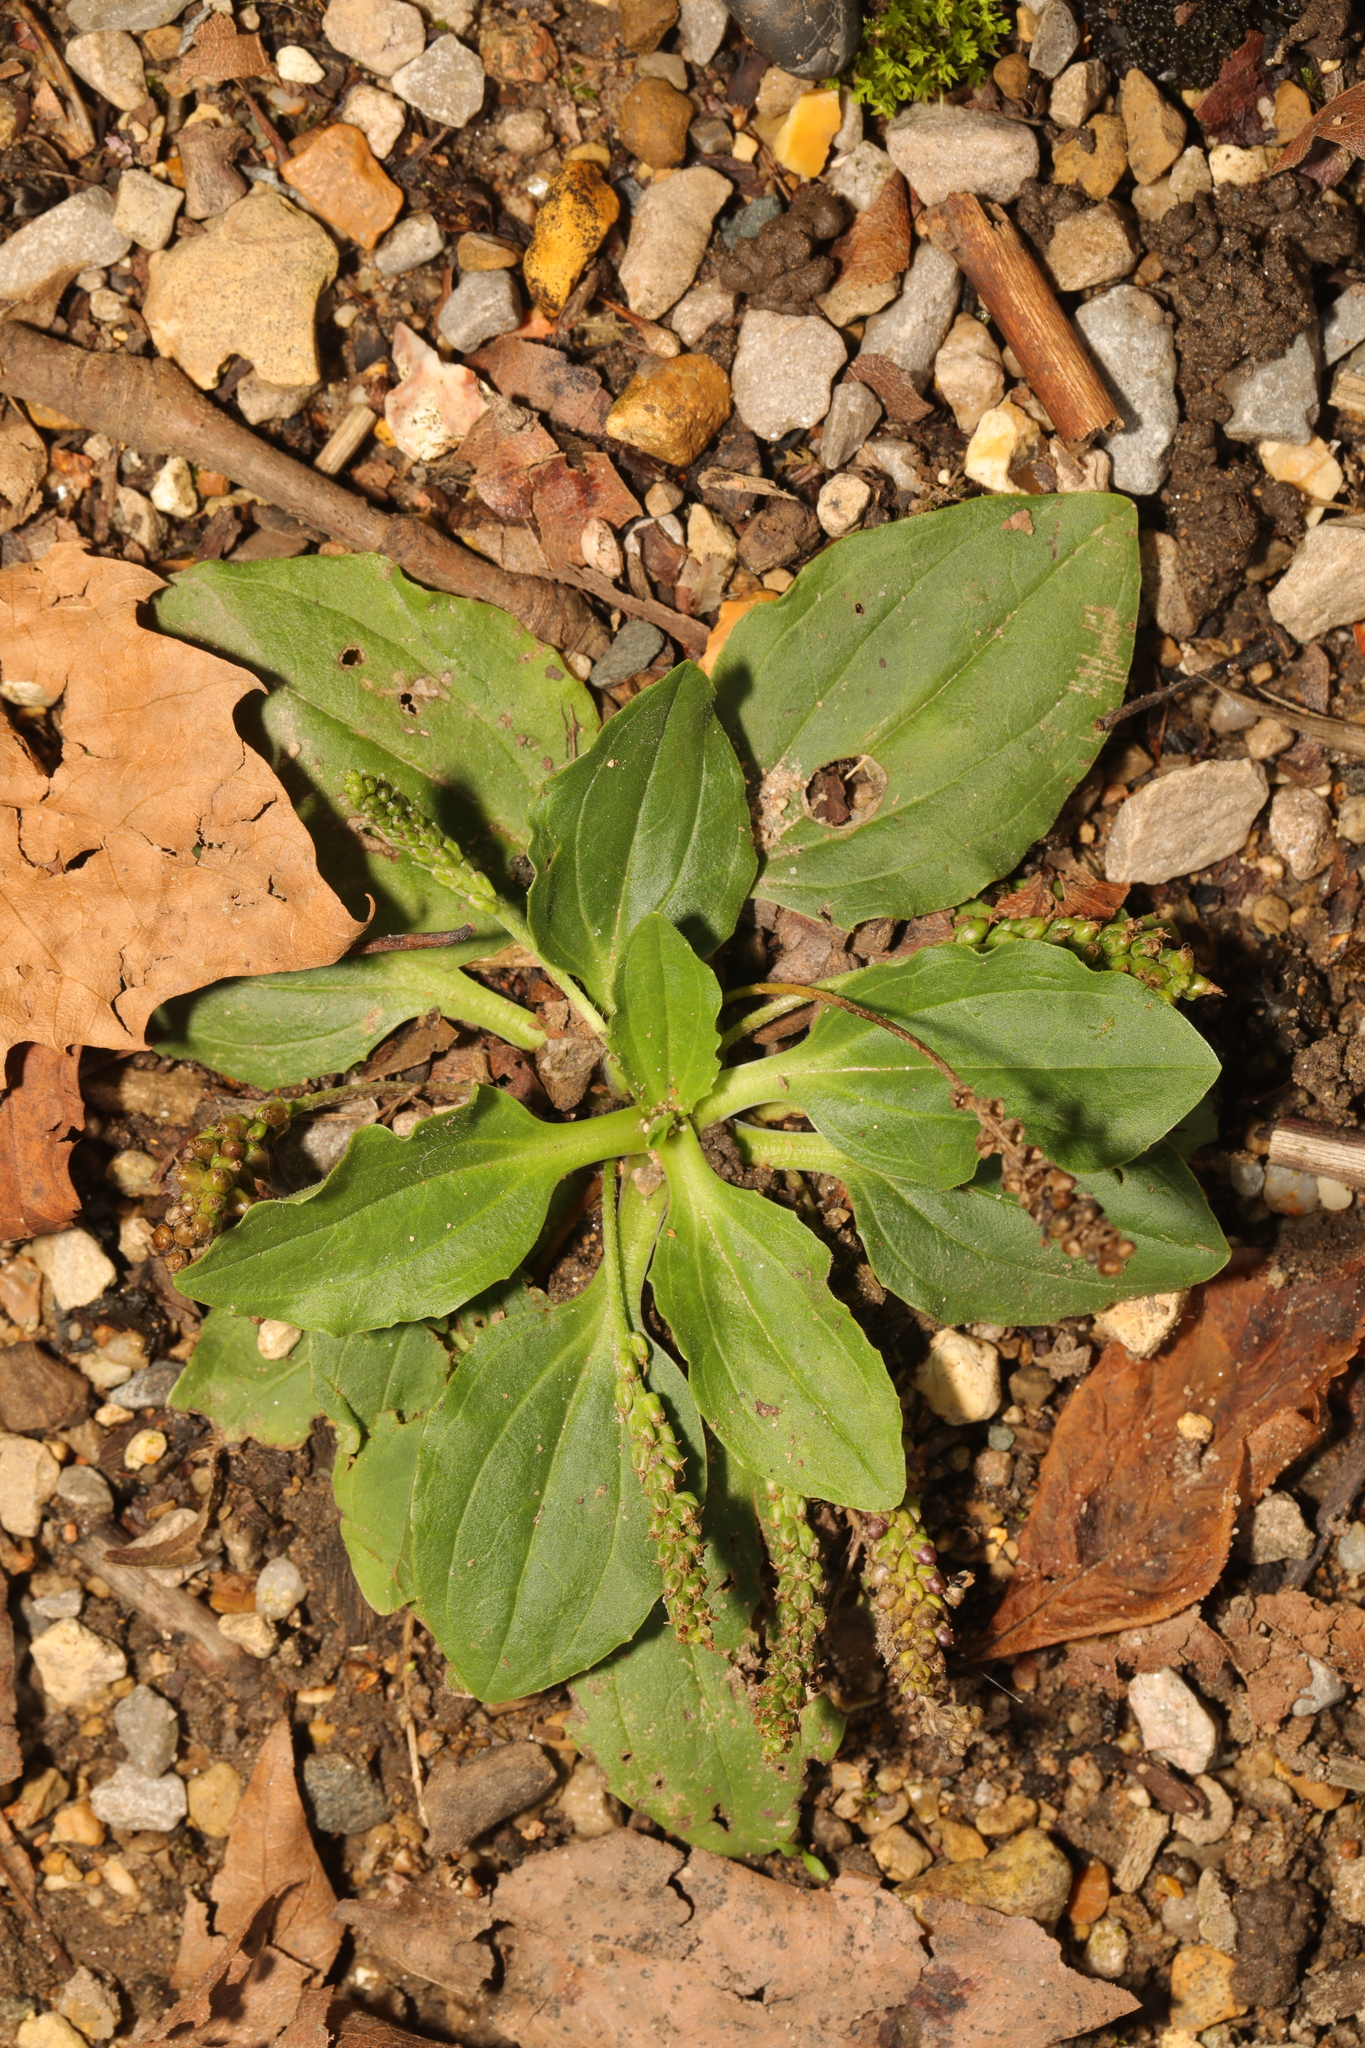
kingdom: Plantae
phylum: Tracheophyta
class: Magnoliopsida
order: Lamiales
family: Plantaginaceae
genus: Plantago
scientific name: Plantago major
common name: Common plantain
